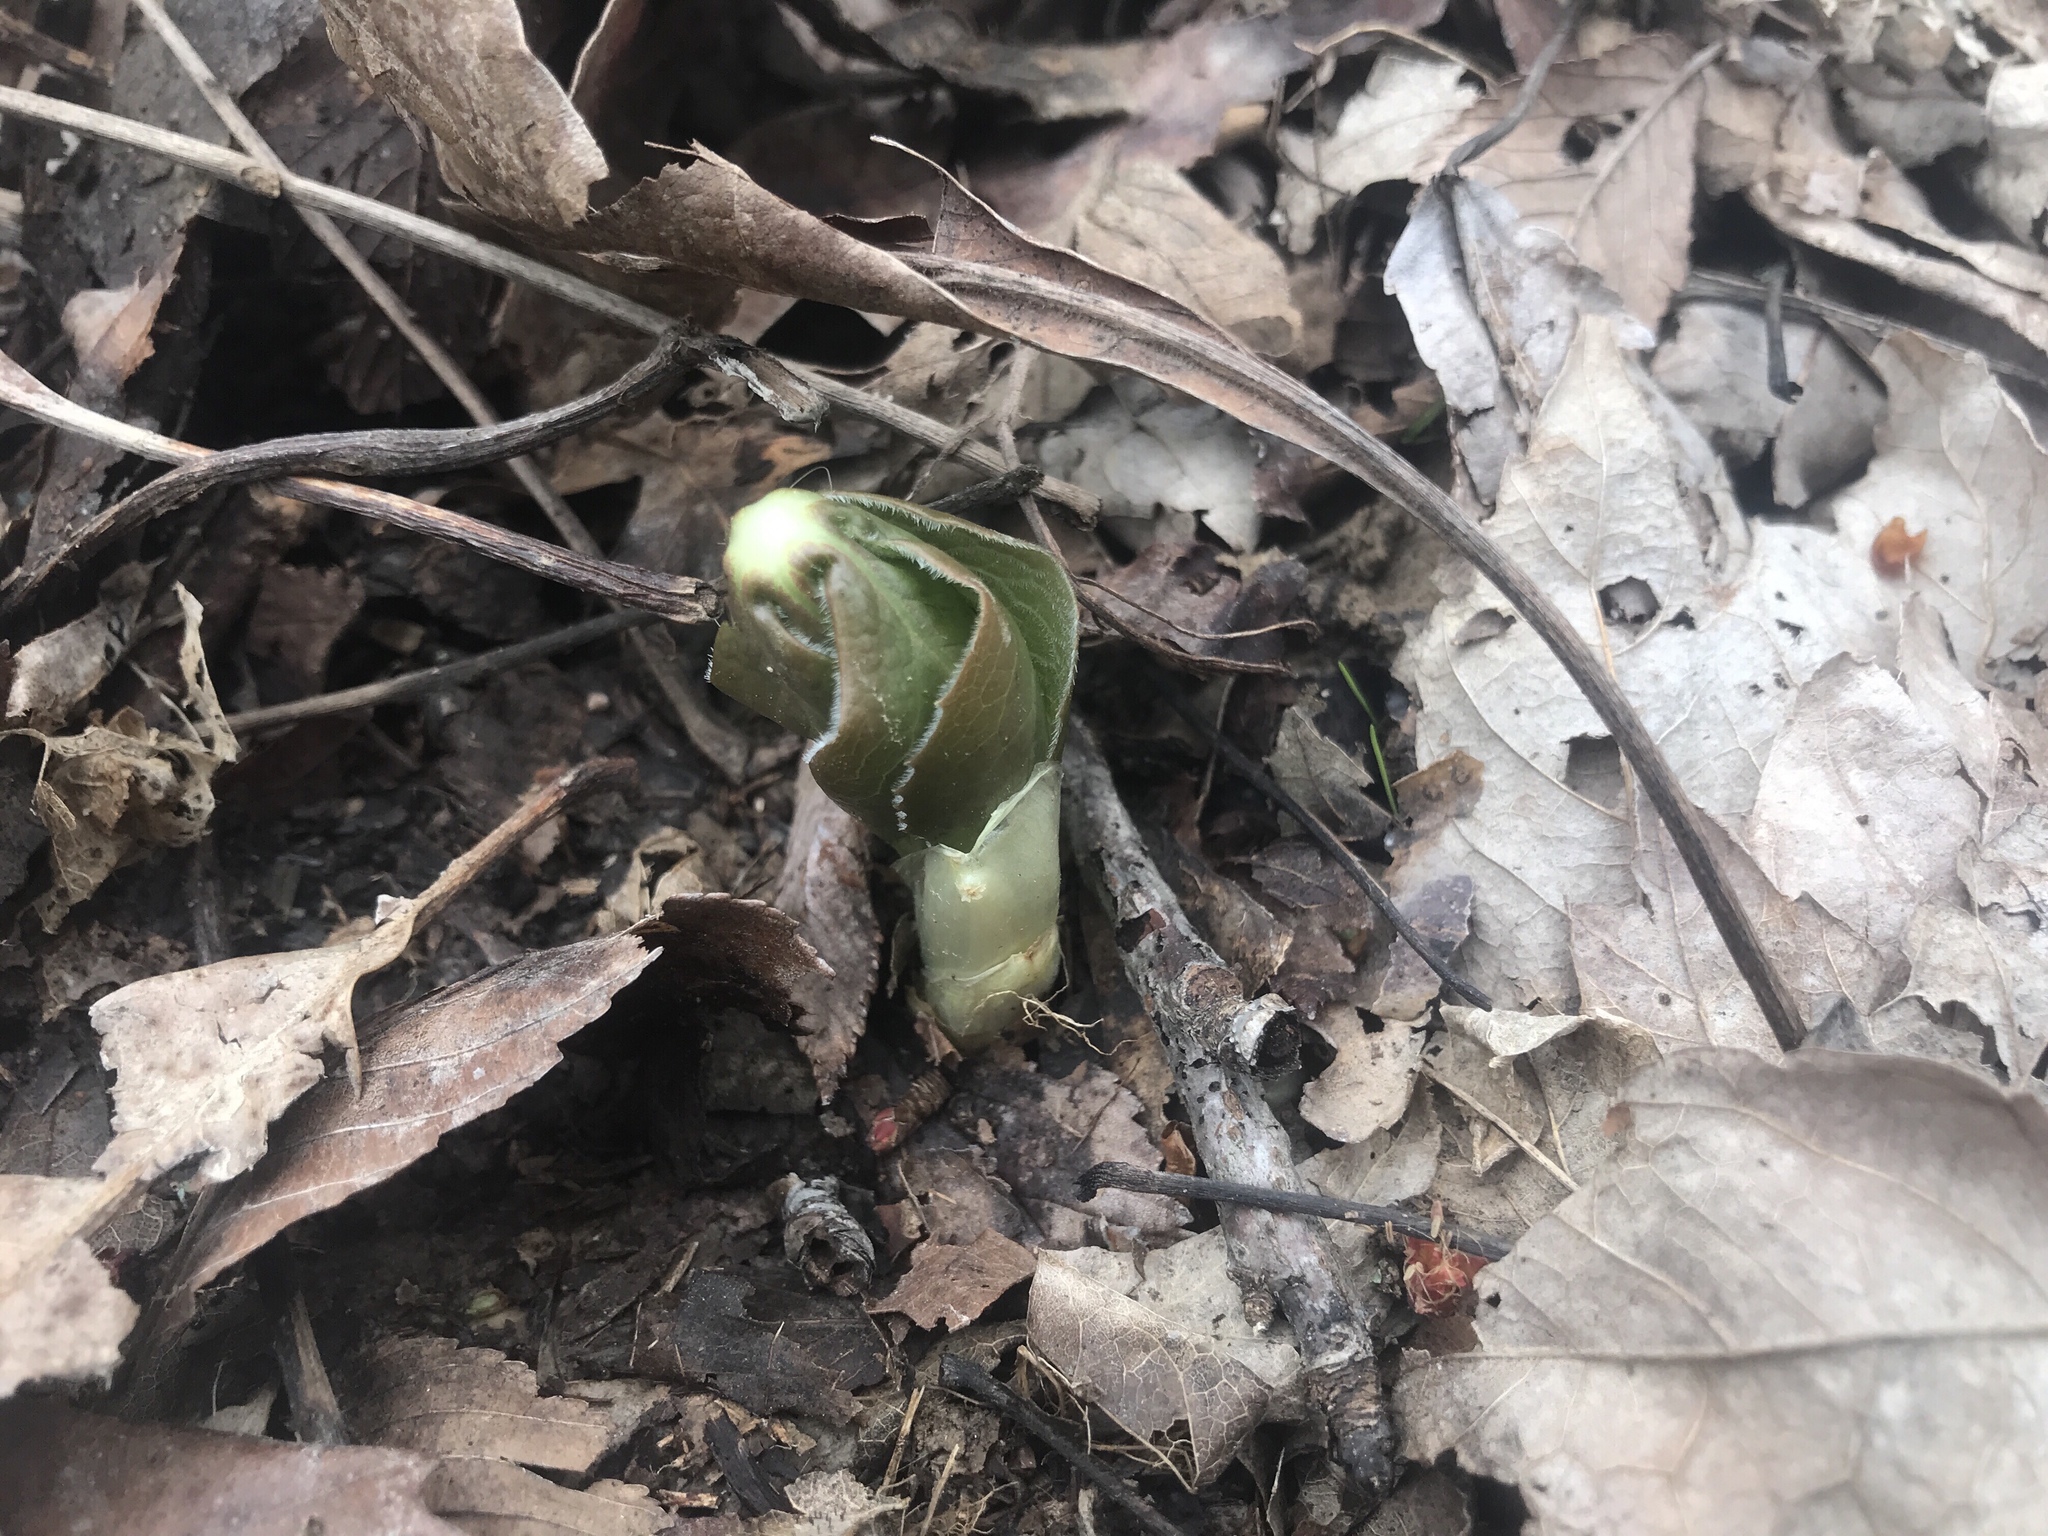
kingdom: Plantae
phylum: Tracheophyta
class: Magnoliopsida
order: Ranunculales
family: Berberidaceae
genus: Podophyllum
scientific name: Podophyllum peltatum
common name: Wild mandrake
